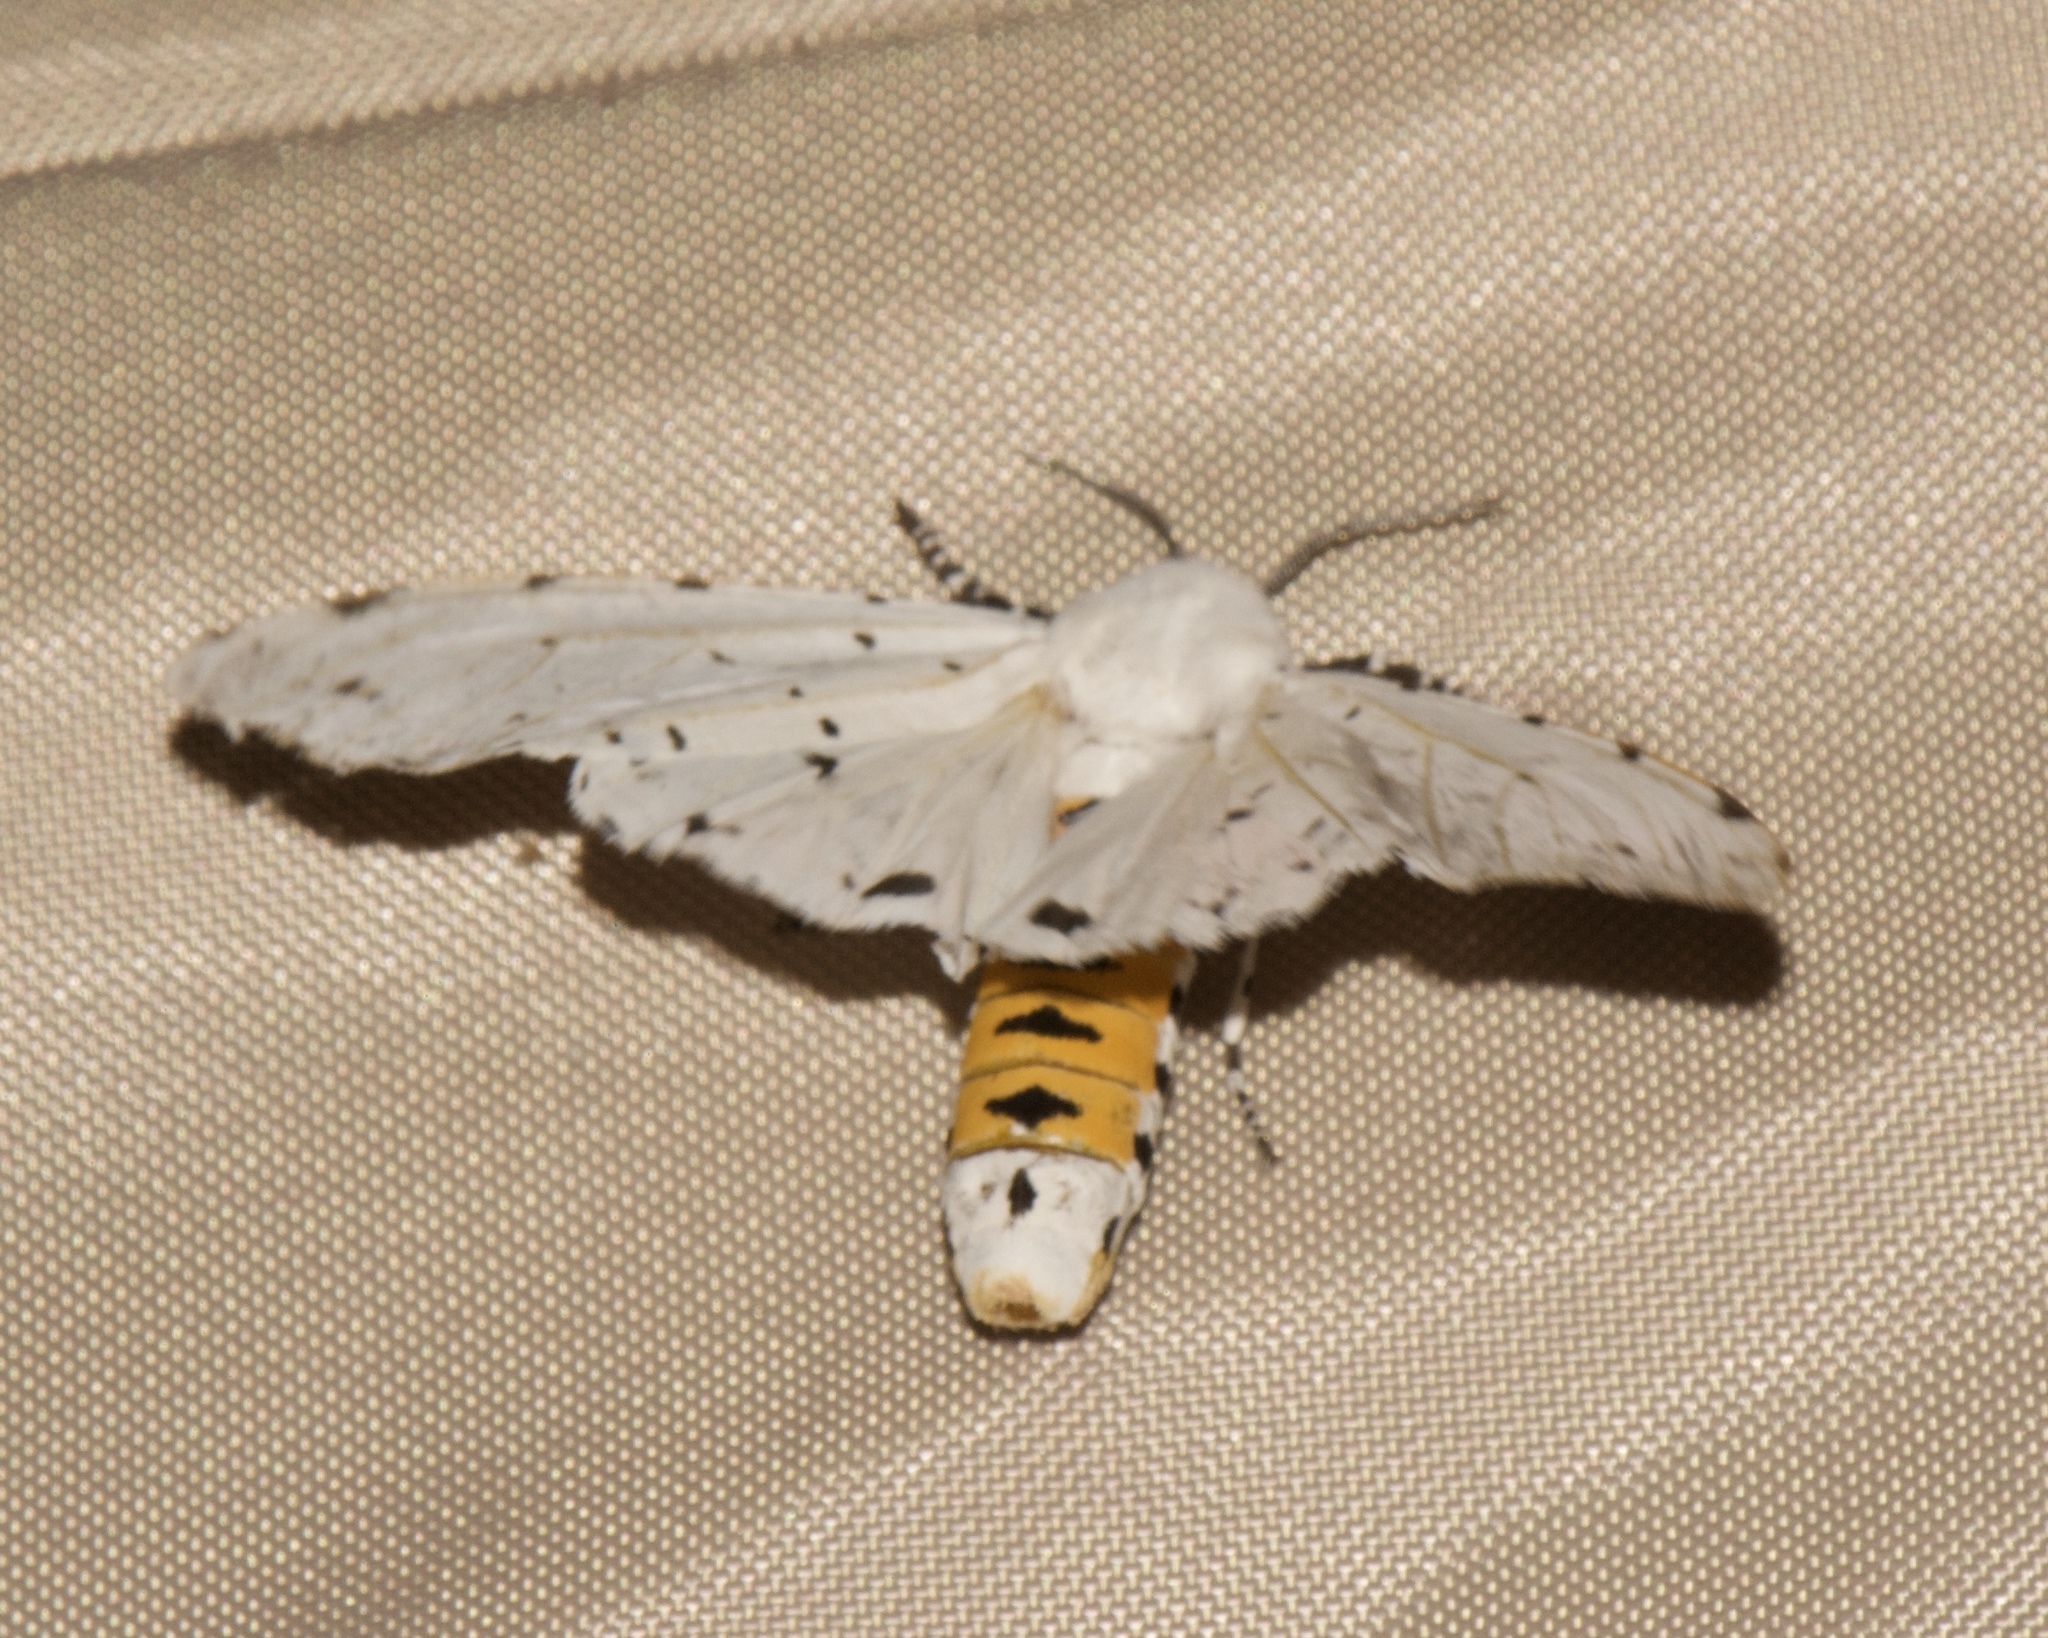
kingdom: Animalia
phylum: Arthropoda
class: Insecta
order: Lepidoptera
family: Erebidae
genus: Estigmene
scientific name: Estigmene acrea
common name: Salt marsh moth
